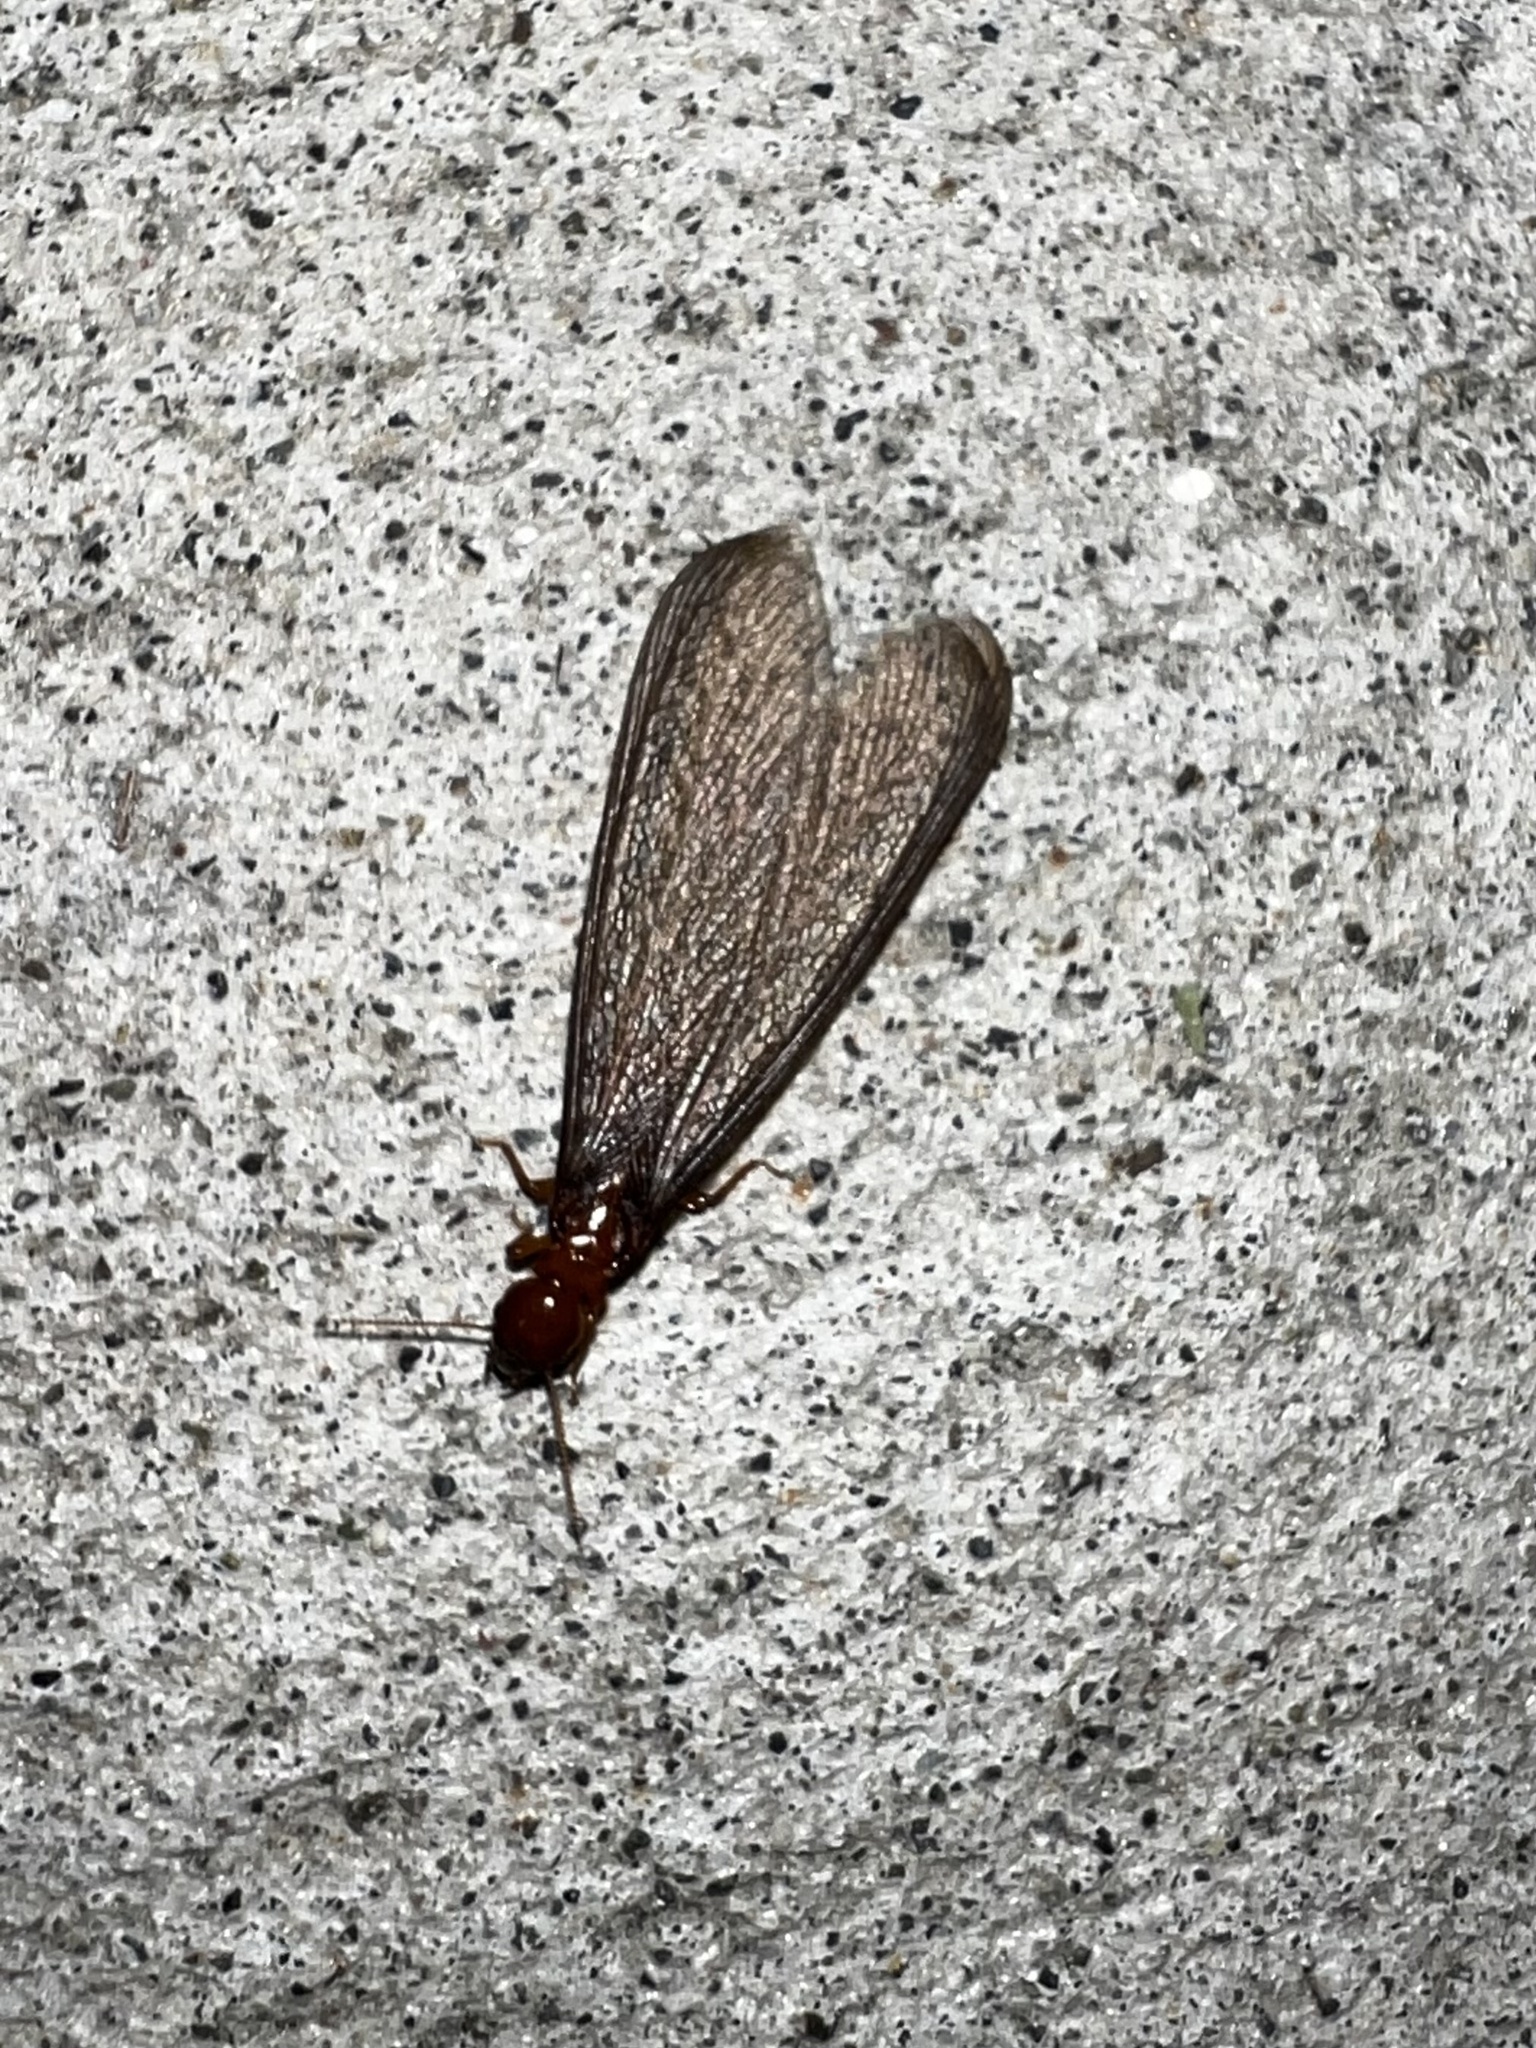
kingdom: Animalia
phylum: Arthropoda
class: Insecta
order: Blattodea
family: Archotermopsidae
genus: Zootermopsis
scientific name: Zootermopsis angusticollis
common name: Rottenwood termite
